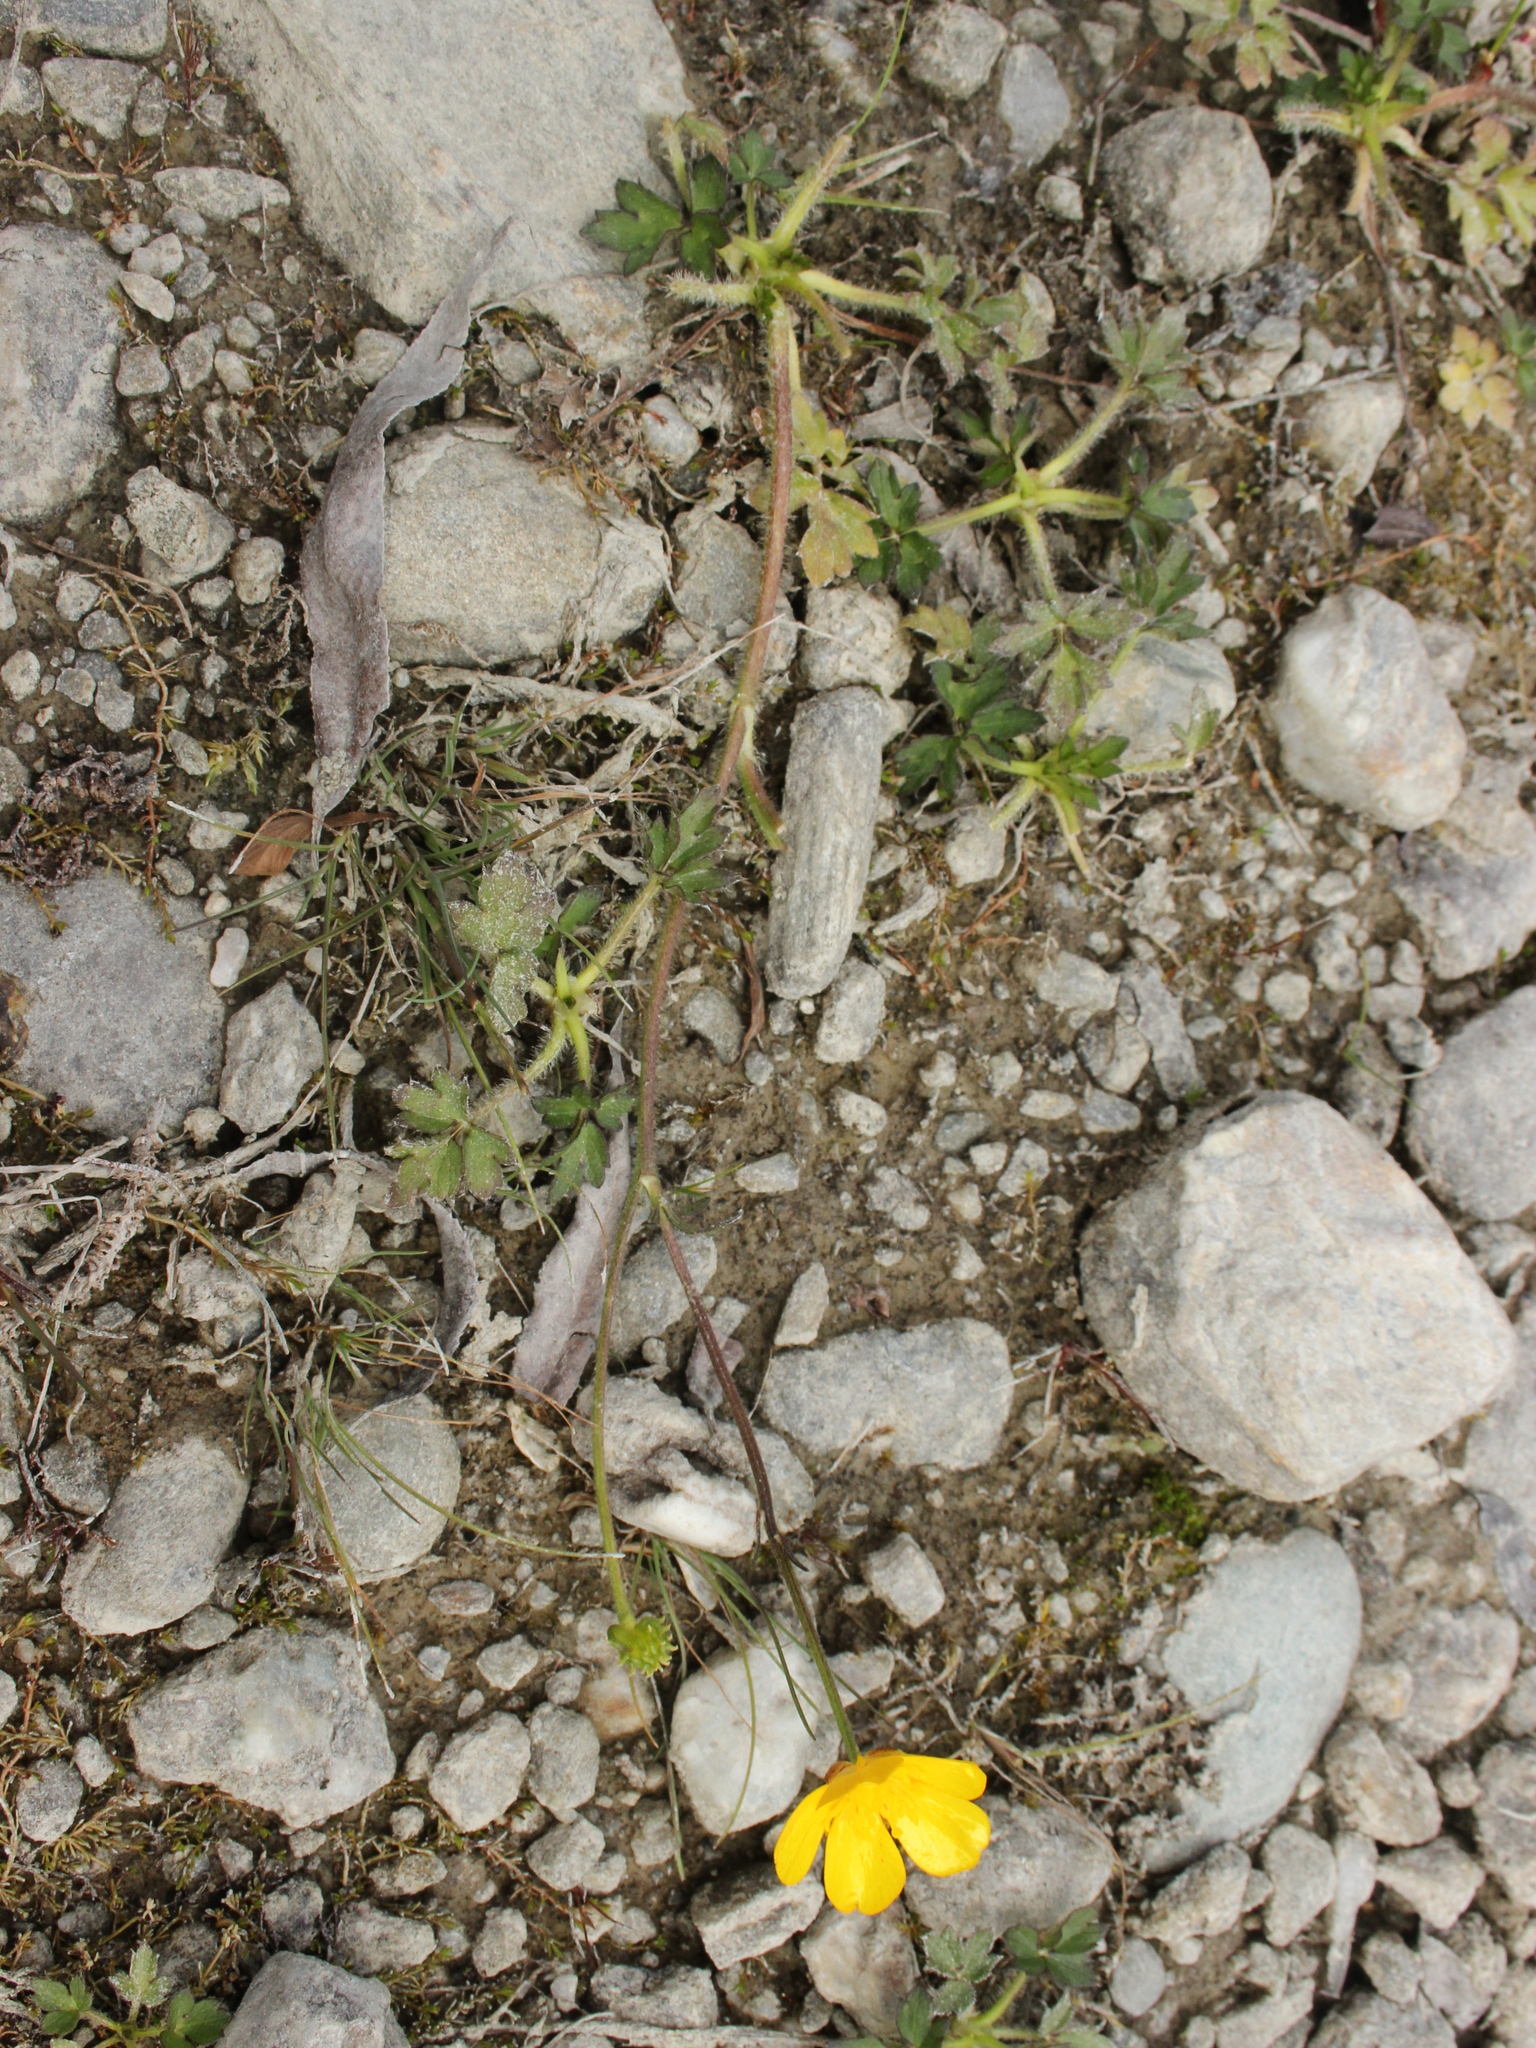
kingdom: Plantae
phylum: Tracheophyta
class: Magnoliopsida
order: Ranunculales
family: Ranunculaceae
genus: Ranunculus
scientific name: Ranunculus repens
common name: Creeping buttercup
